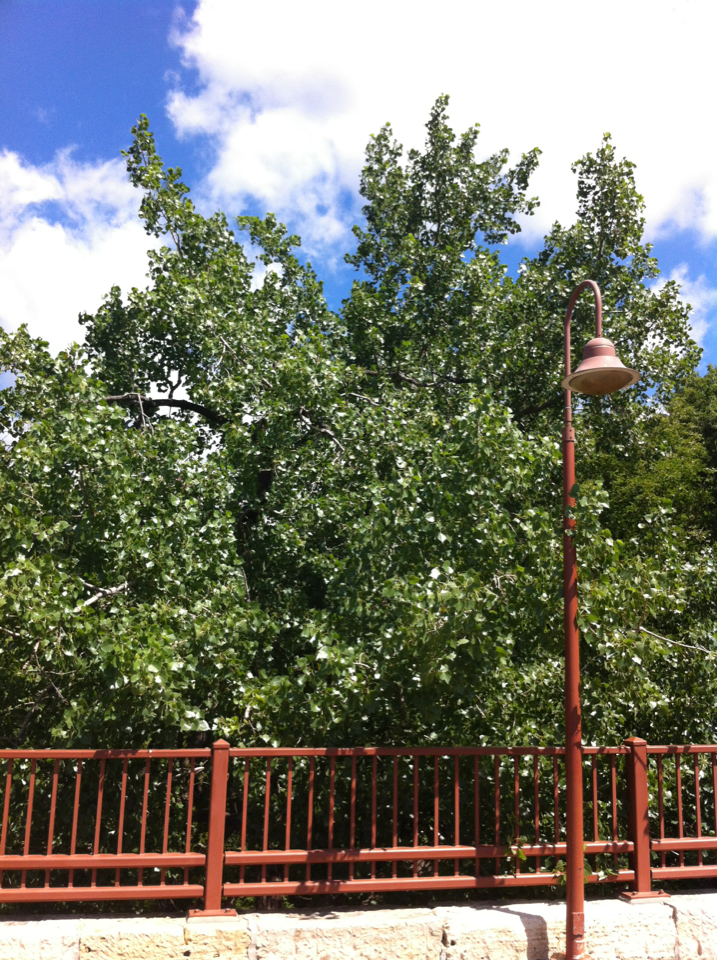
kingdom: Plantae
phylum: Tracheophyta
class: Magnoliopsida
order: Malpighiales
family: Salicaceae
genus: Populus
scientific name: Populus deltoides
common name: Eastern cottonwood
